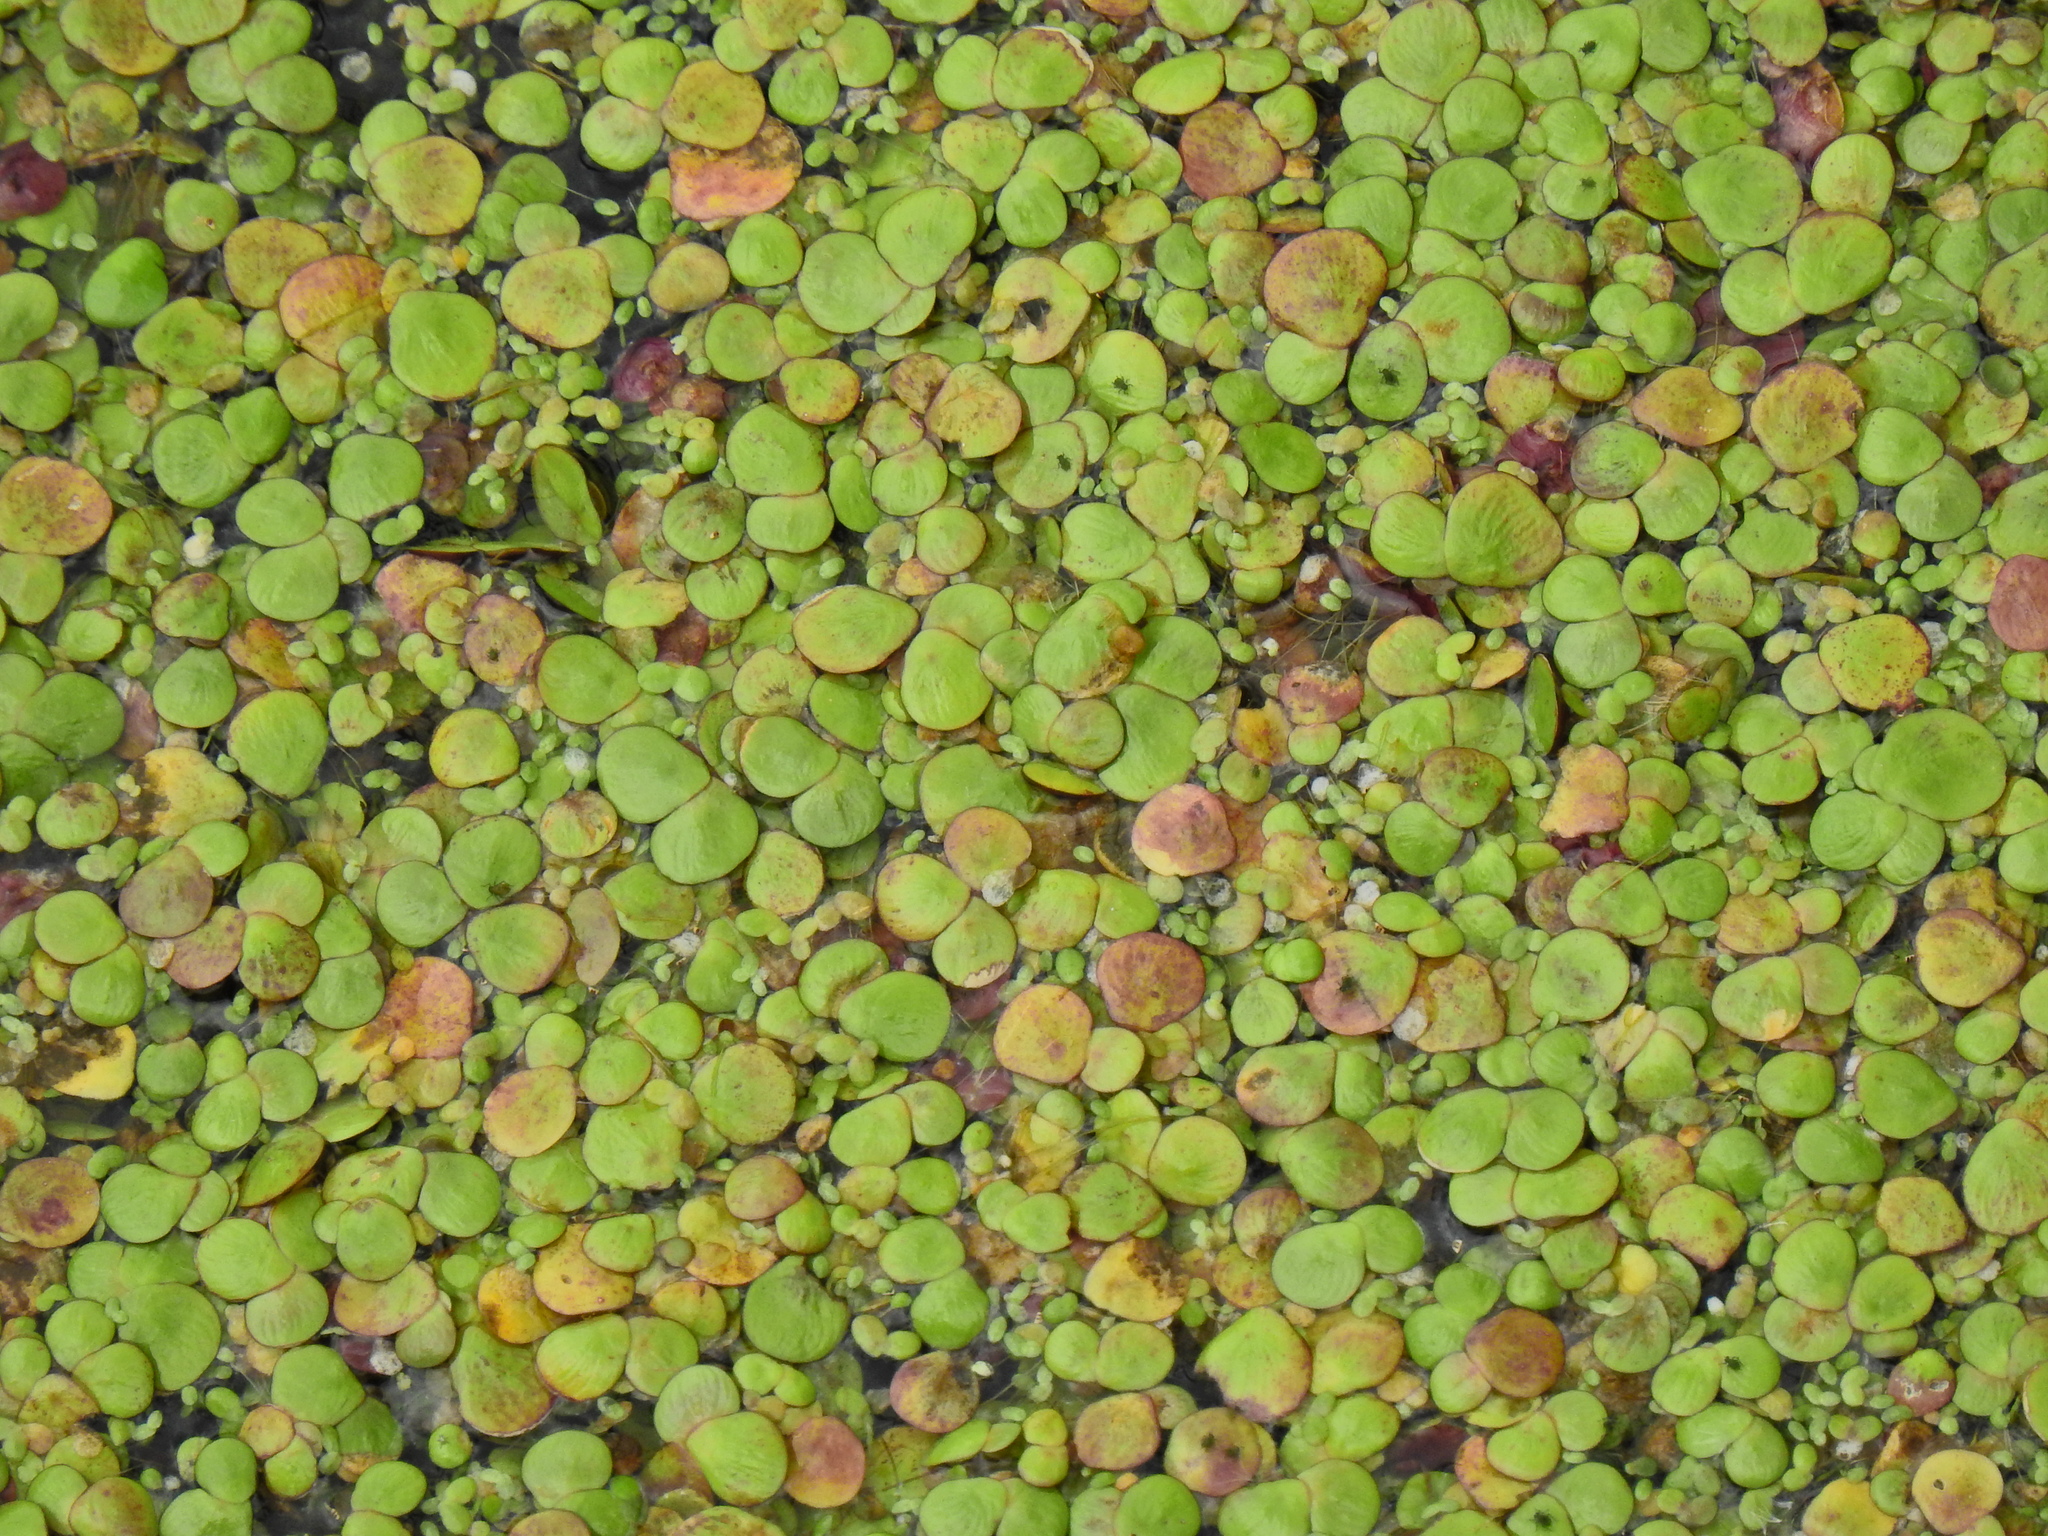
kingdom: Plantae
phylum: Tracheophyta
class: Liliopsida
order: Alismatales
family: Araceae
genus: Spirodela
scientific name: Spirodela polyrhiza
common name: Great duckweed
